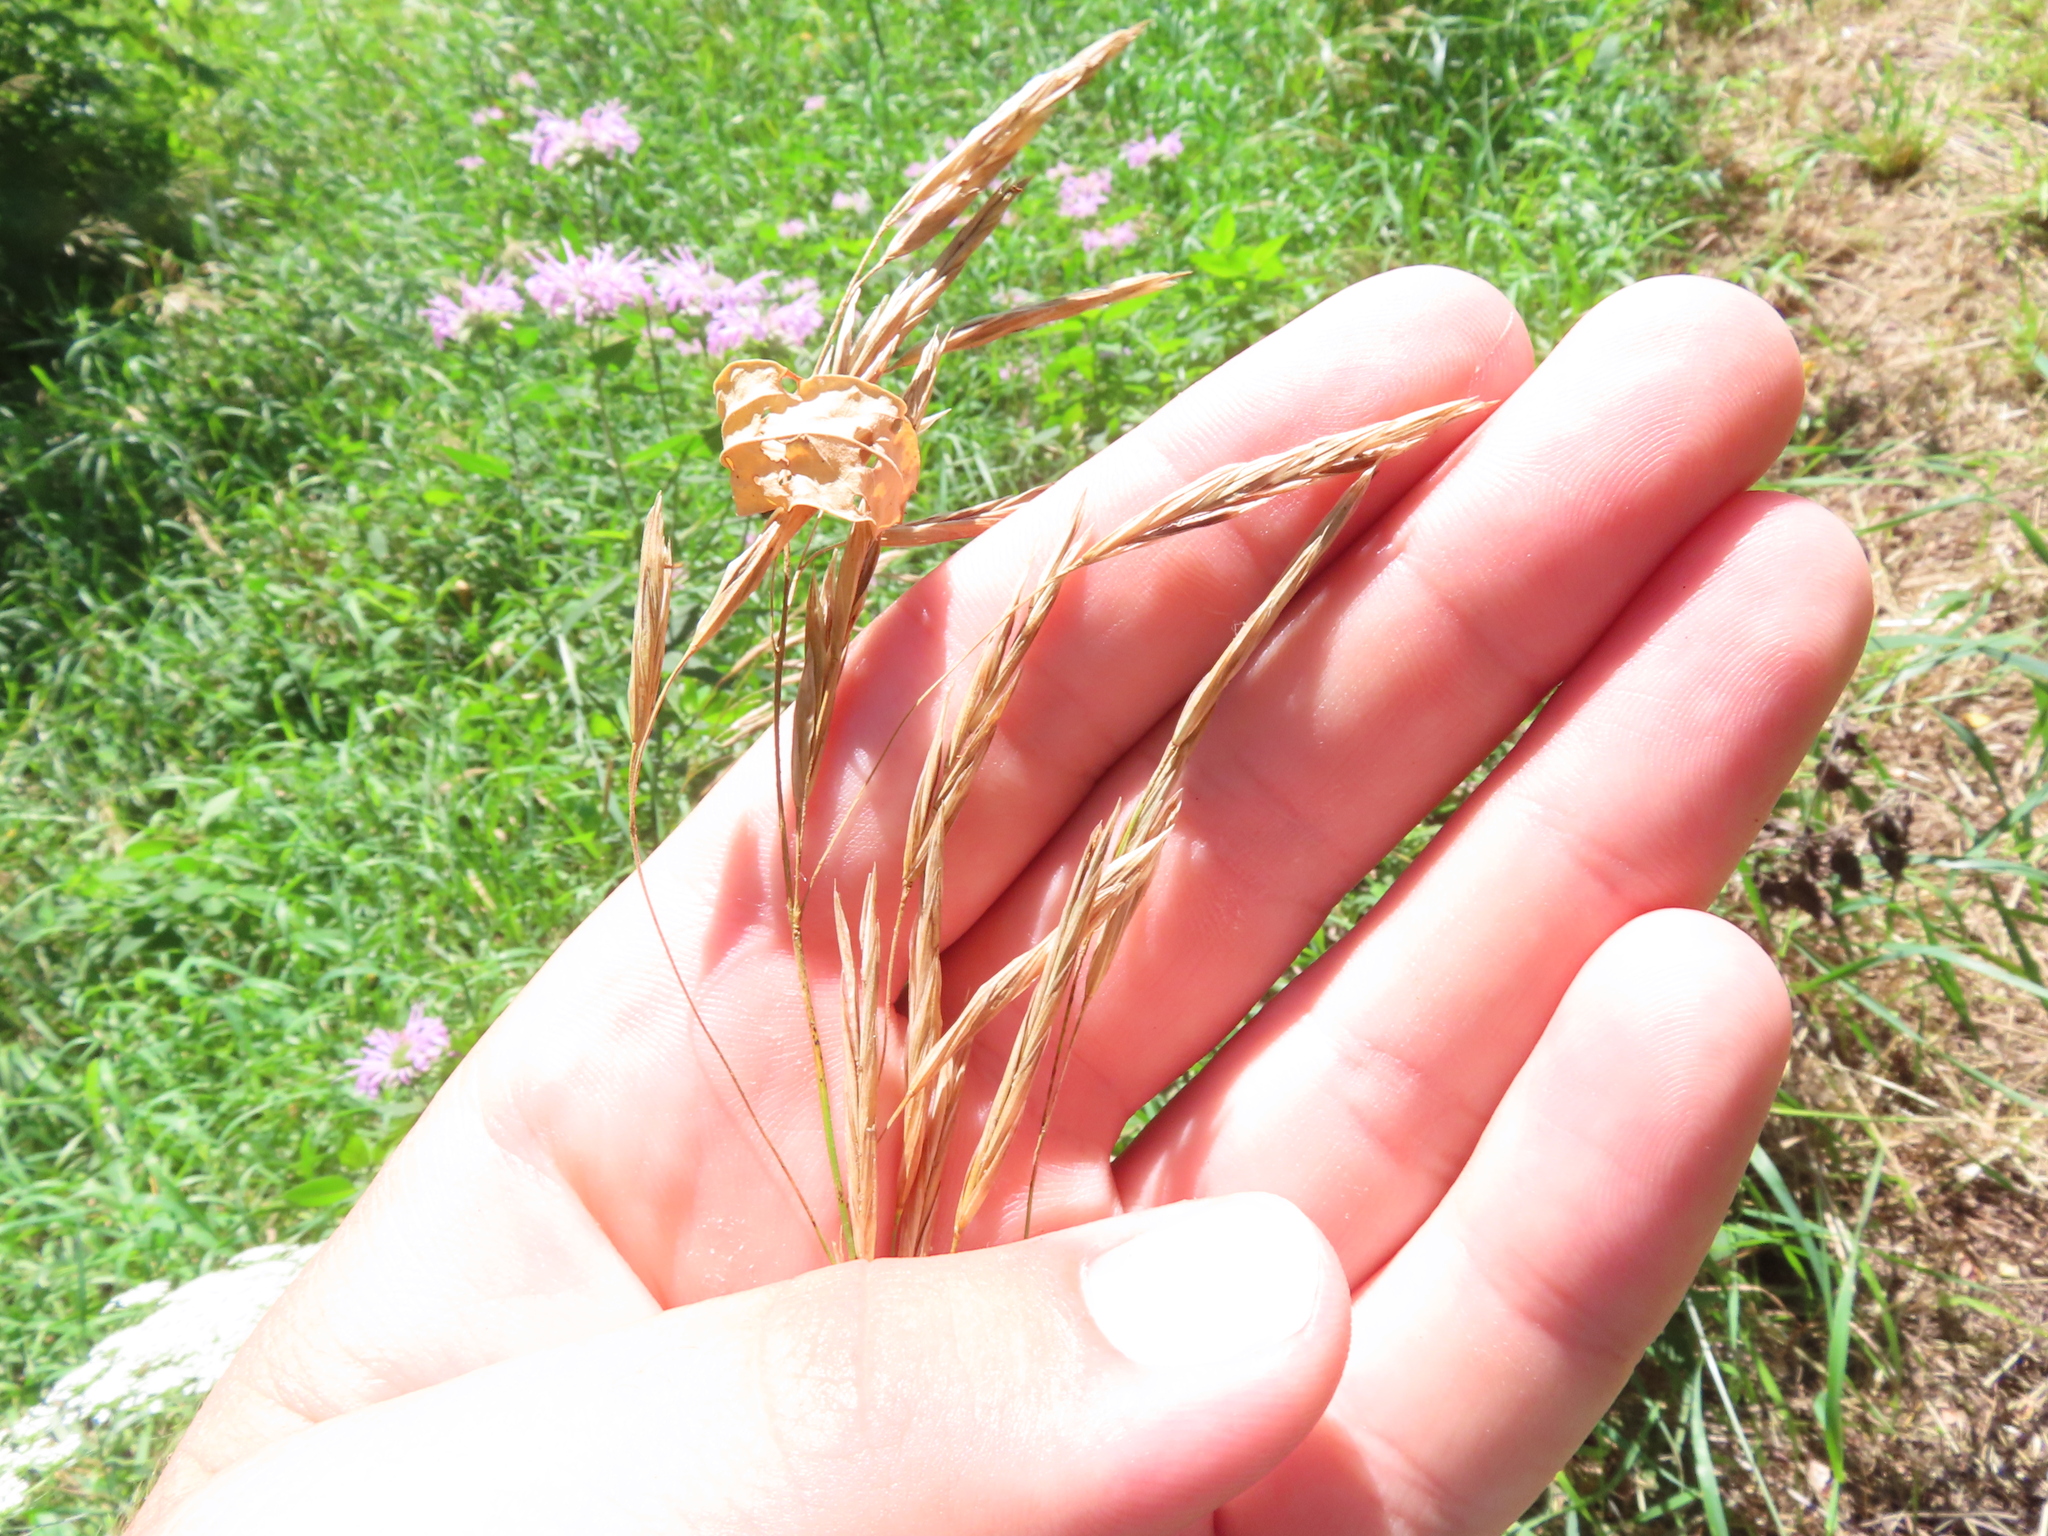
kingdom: Plantae
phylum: Tracheophyta
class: Liliopsida
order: Poales
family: Poaceae
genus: Bromus
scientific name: Bromus inermis
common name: Smooth brome
